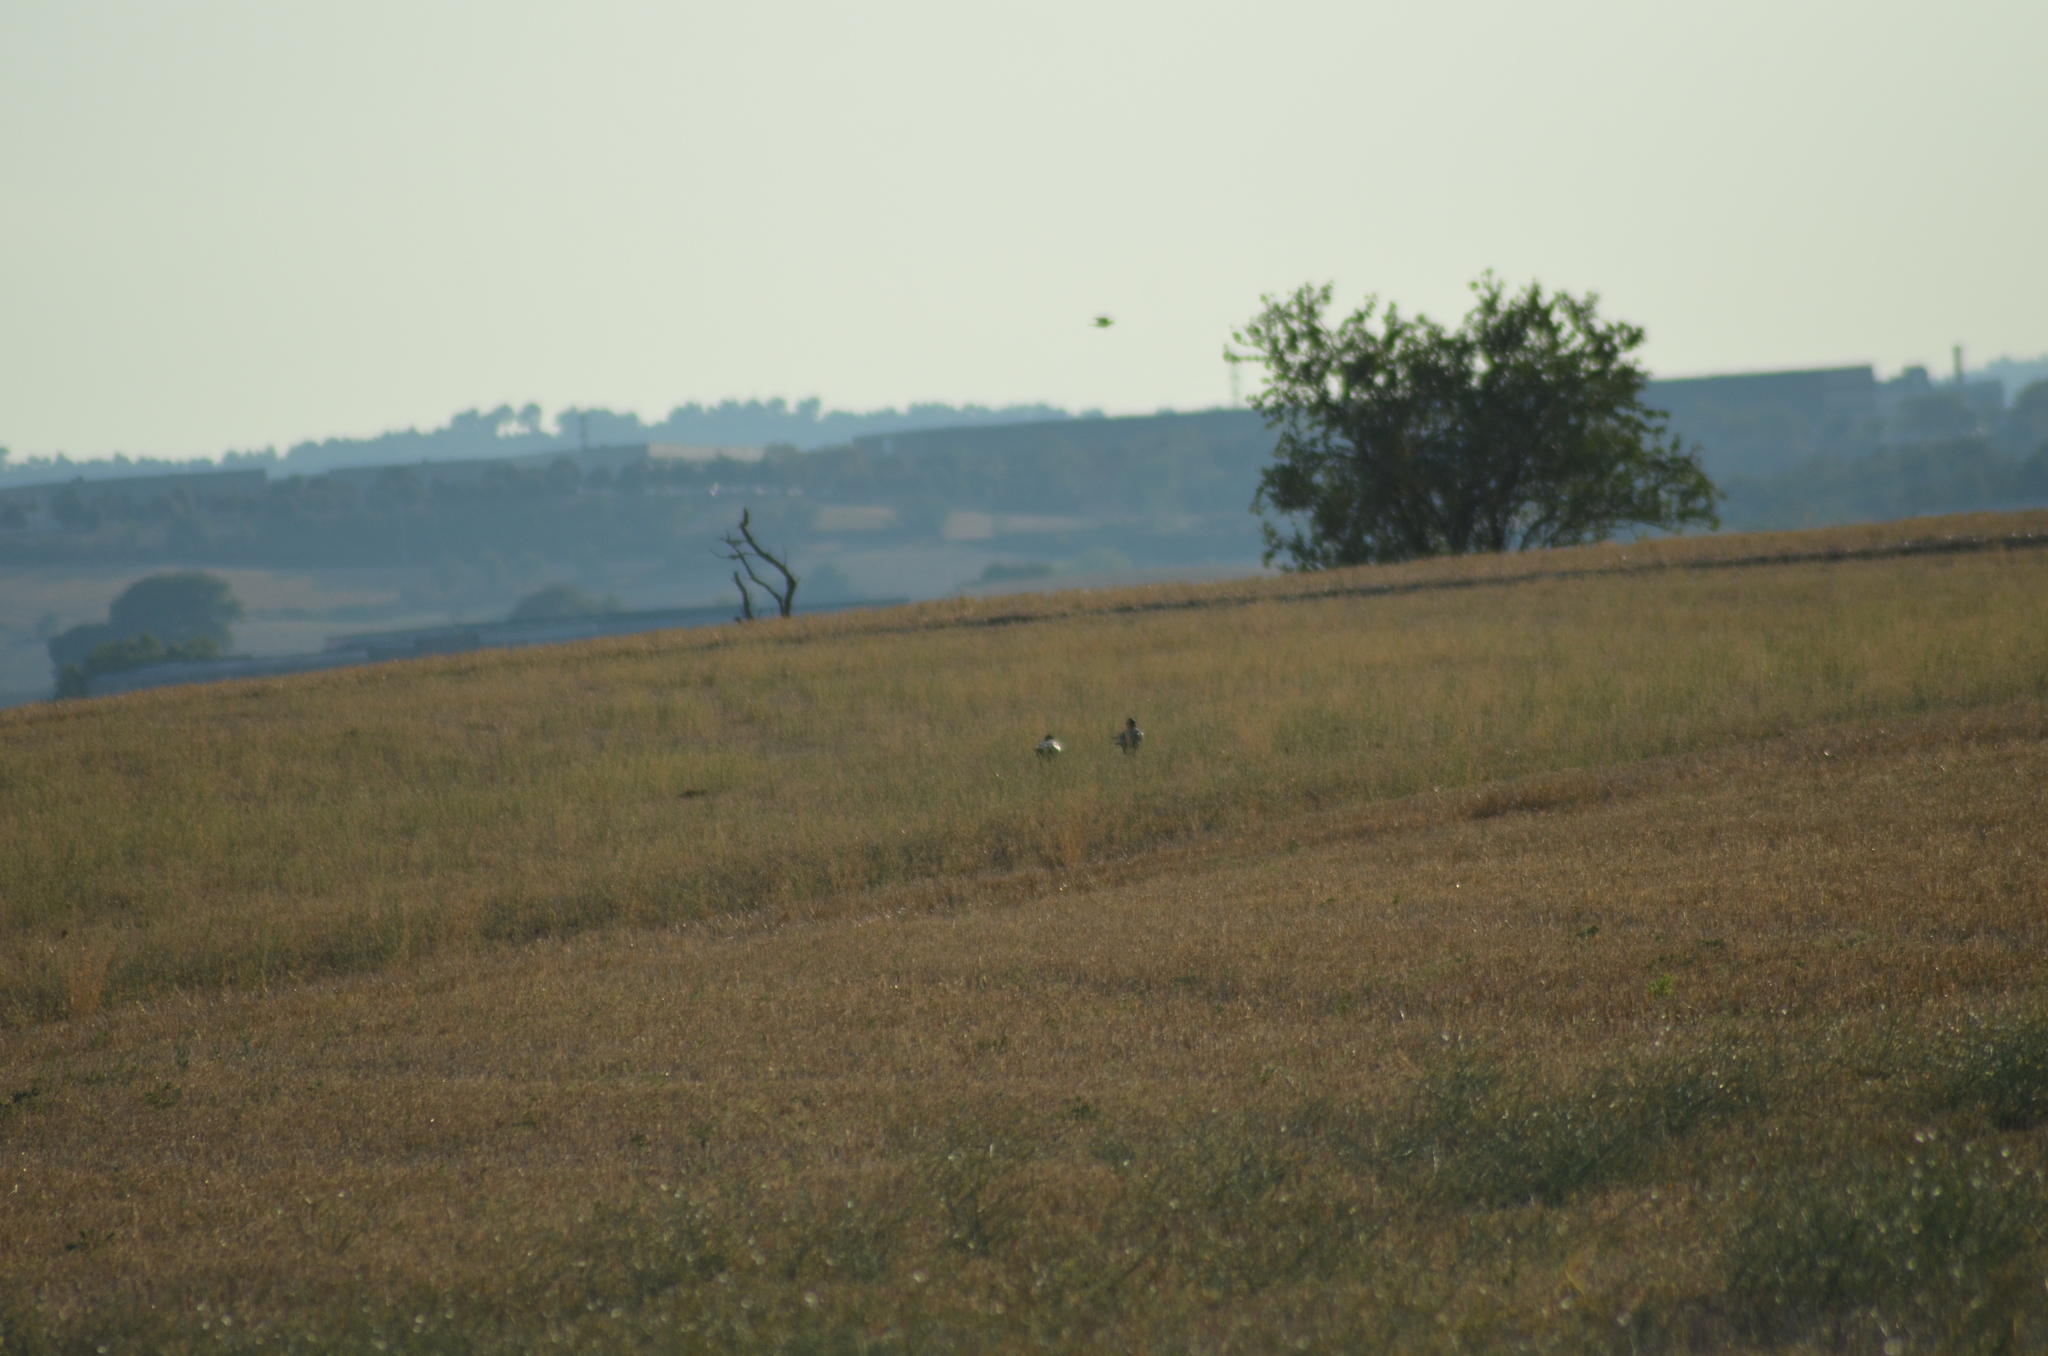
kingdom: Animalia
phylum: Chordata
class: Aves
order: Passeriformes
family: Corvidae
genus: Corvus
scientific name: Corvus corax
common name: Common raven
